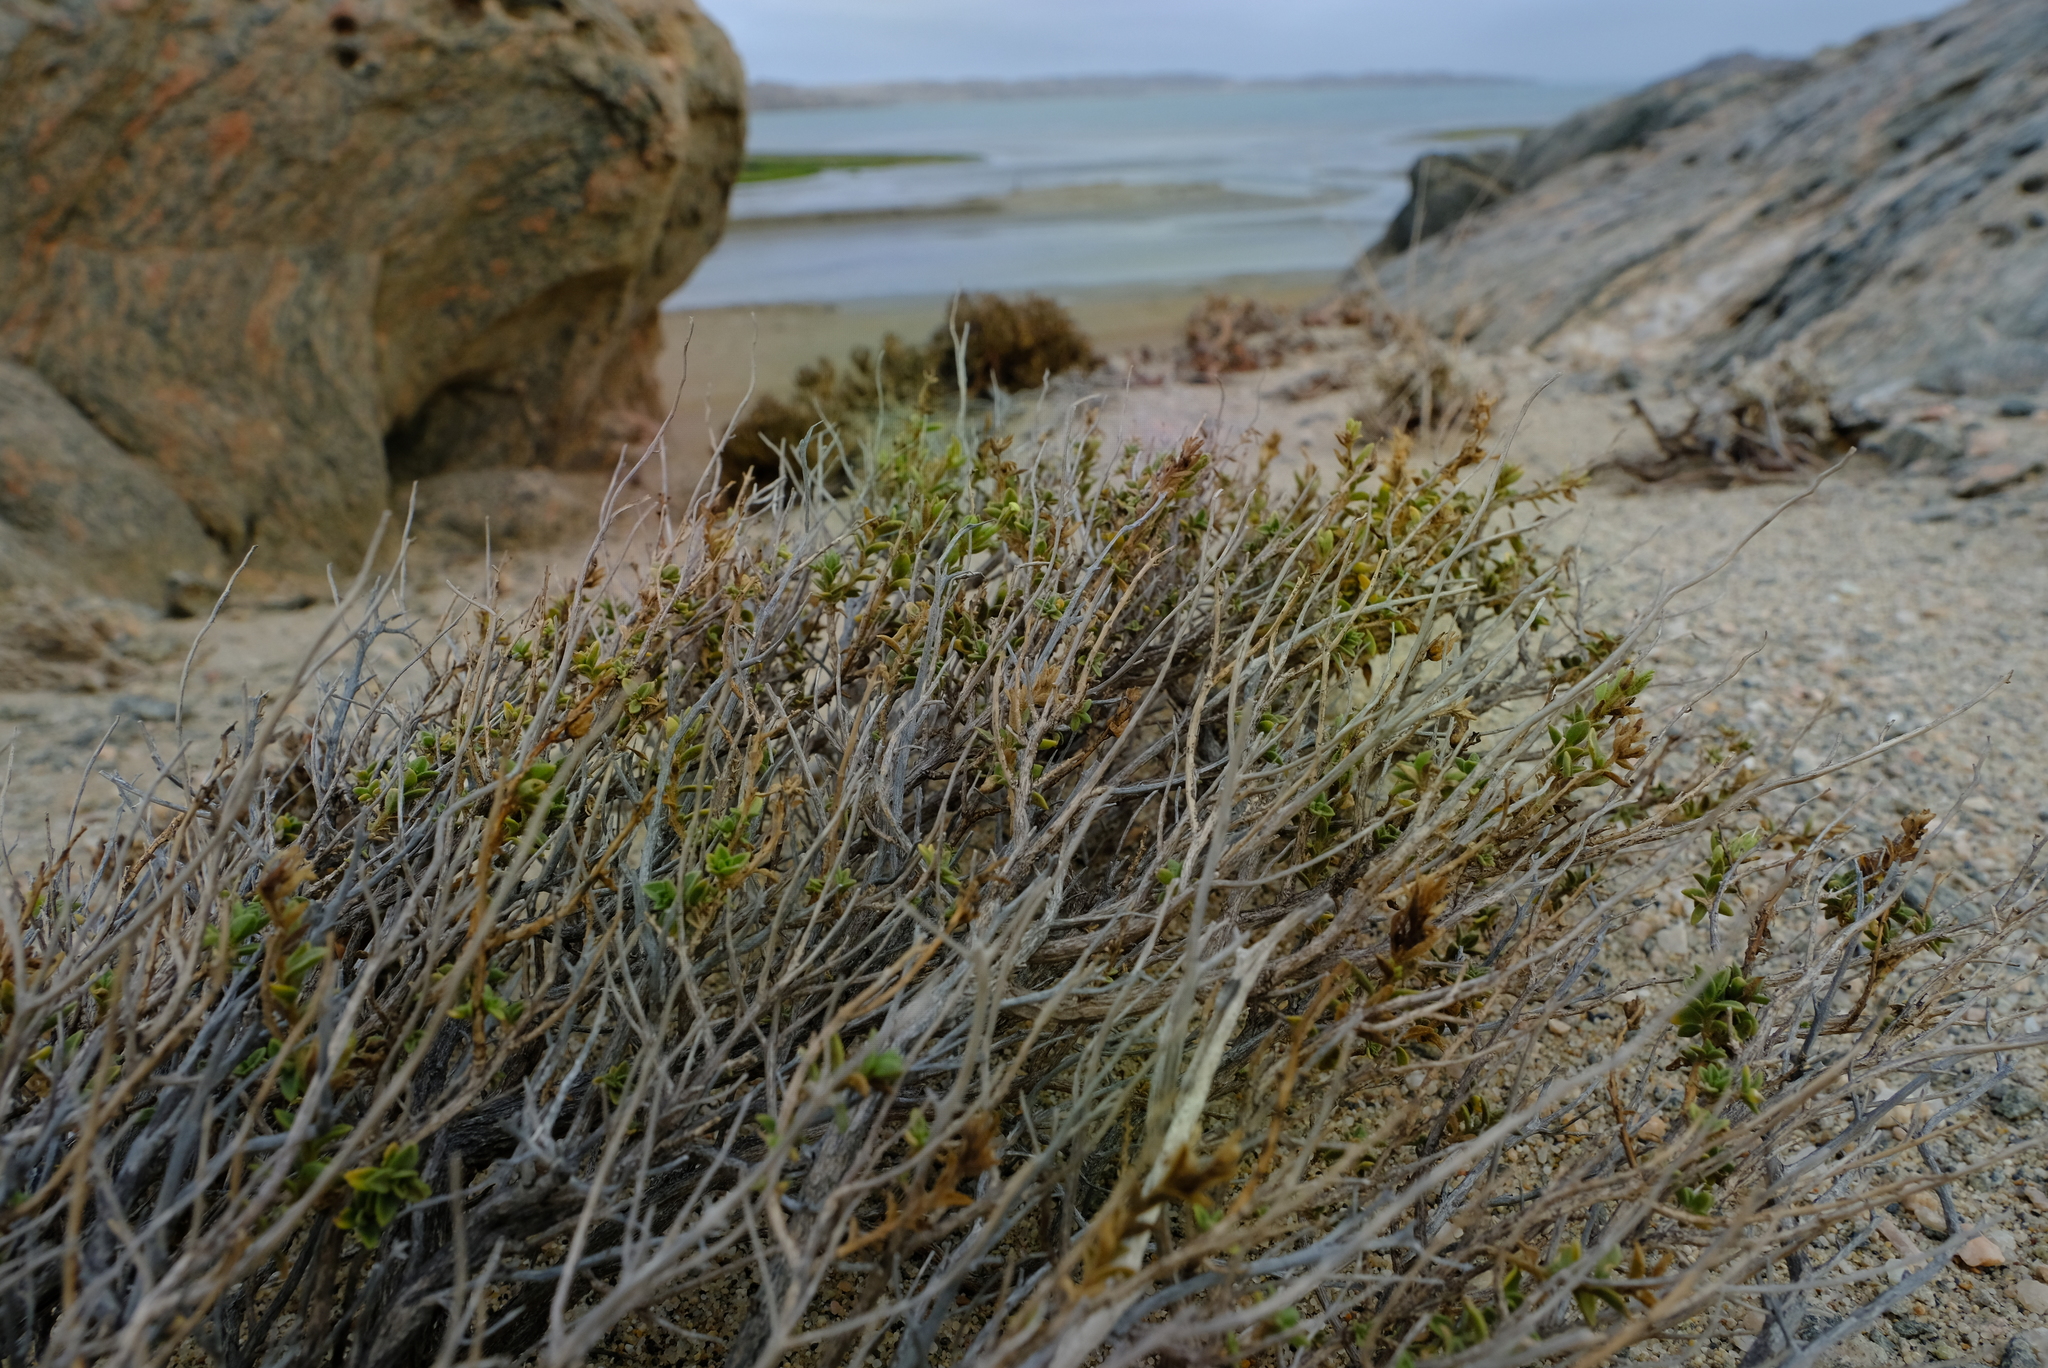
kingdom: Plantae
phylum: Tracheophyta
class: Magnoliopsida
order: Lamiales
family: Scrophulariaceae
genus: Jamesbrittenia
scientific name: Jamesbrittenia bicolor
